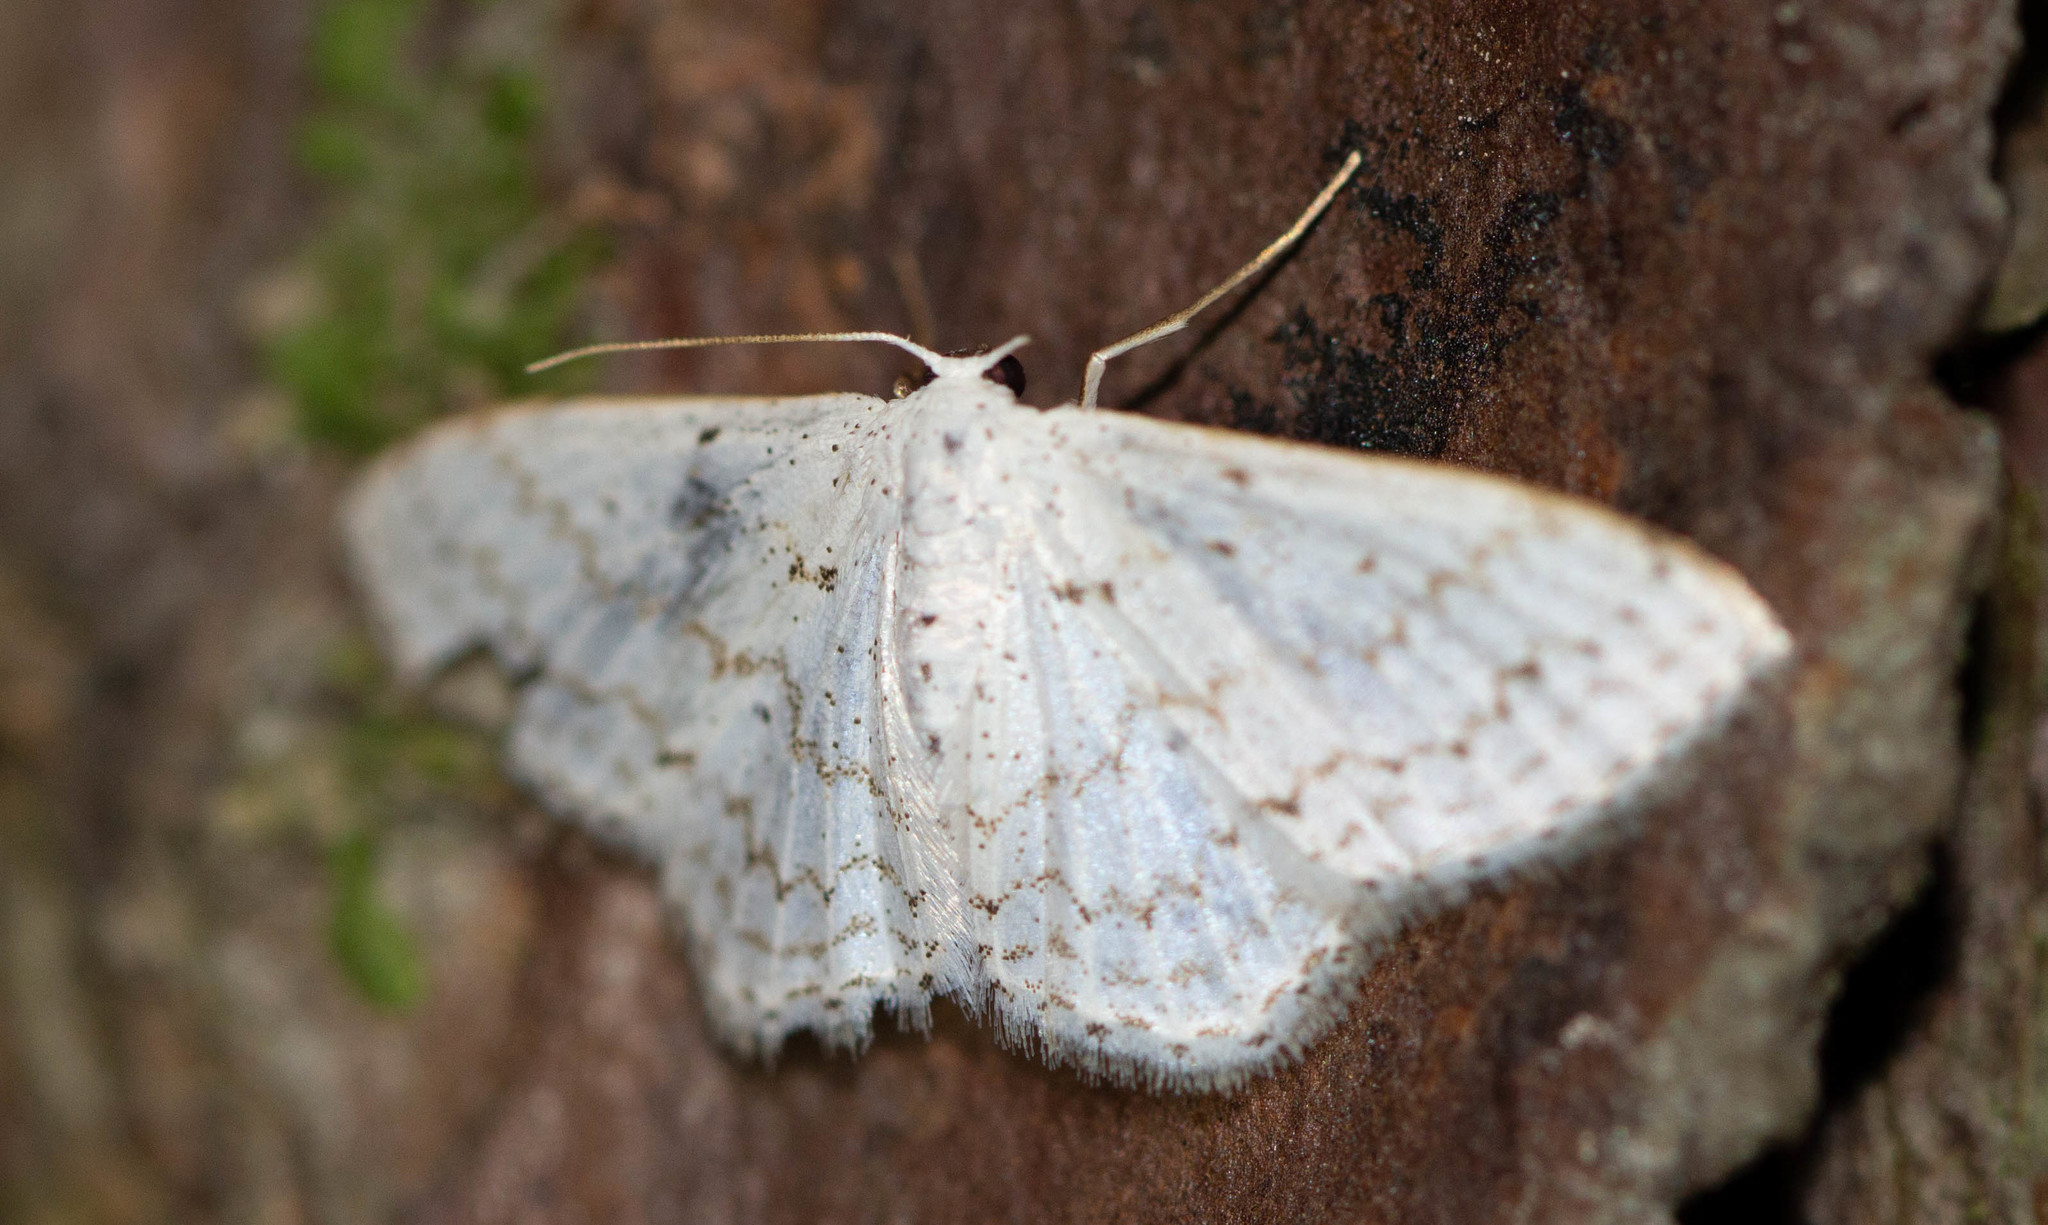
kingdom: Animalia
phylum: Arthropoda
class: Insecta
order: Lepidoptera
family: Geometridae
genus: Idaea
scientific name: Idaea tacturata
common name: Dot-lined wave
